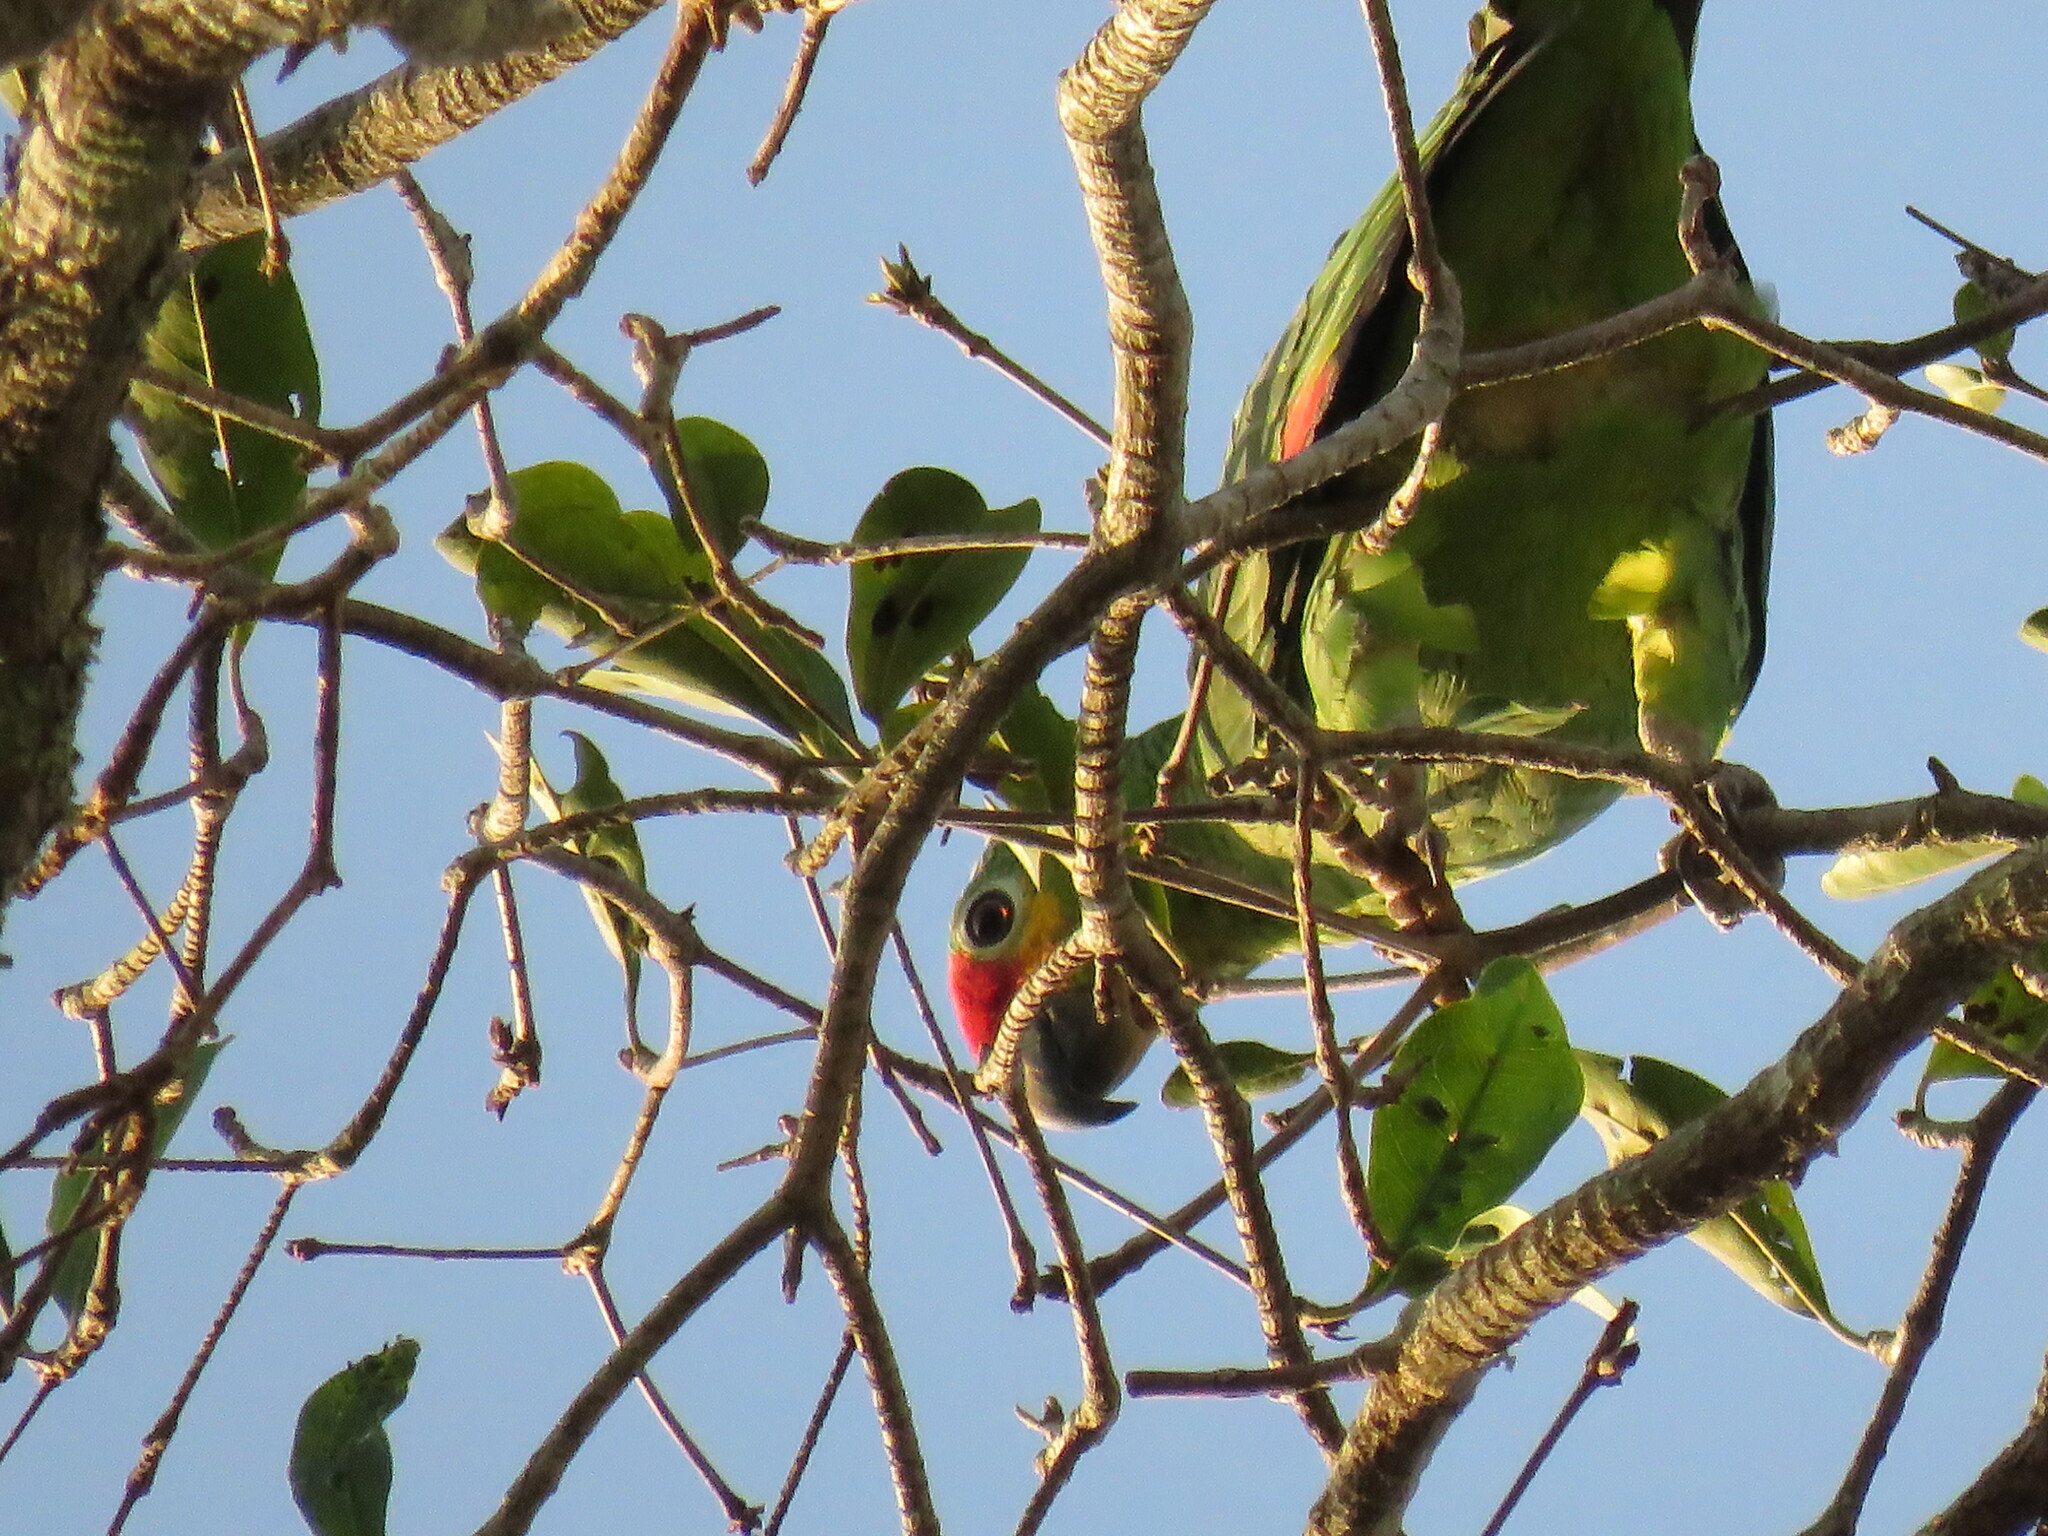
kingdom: Animalia
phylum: Chordata
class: Aves
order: Psittaciformes
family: Psittacidae
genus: Amazona
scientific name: Amazona autumnalis
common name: Red-lored amazon
